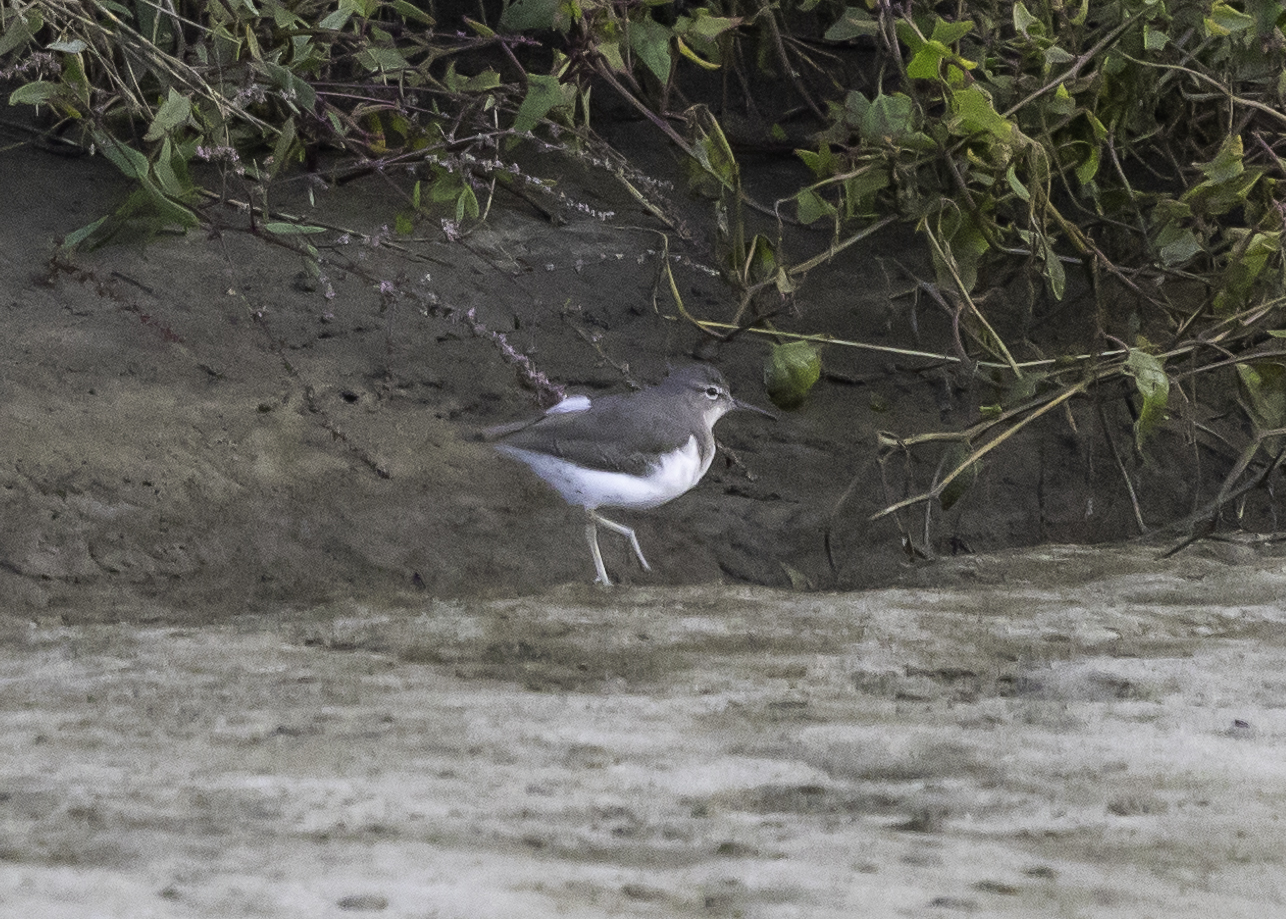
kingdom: Animalia
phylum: Chordata
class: Aves
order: Charadriiformes
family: Scolopacidae
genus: Actitis
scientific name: Actitis macularius
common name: Spotted sandpiper
